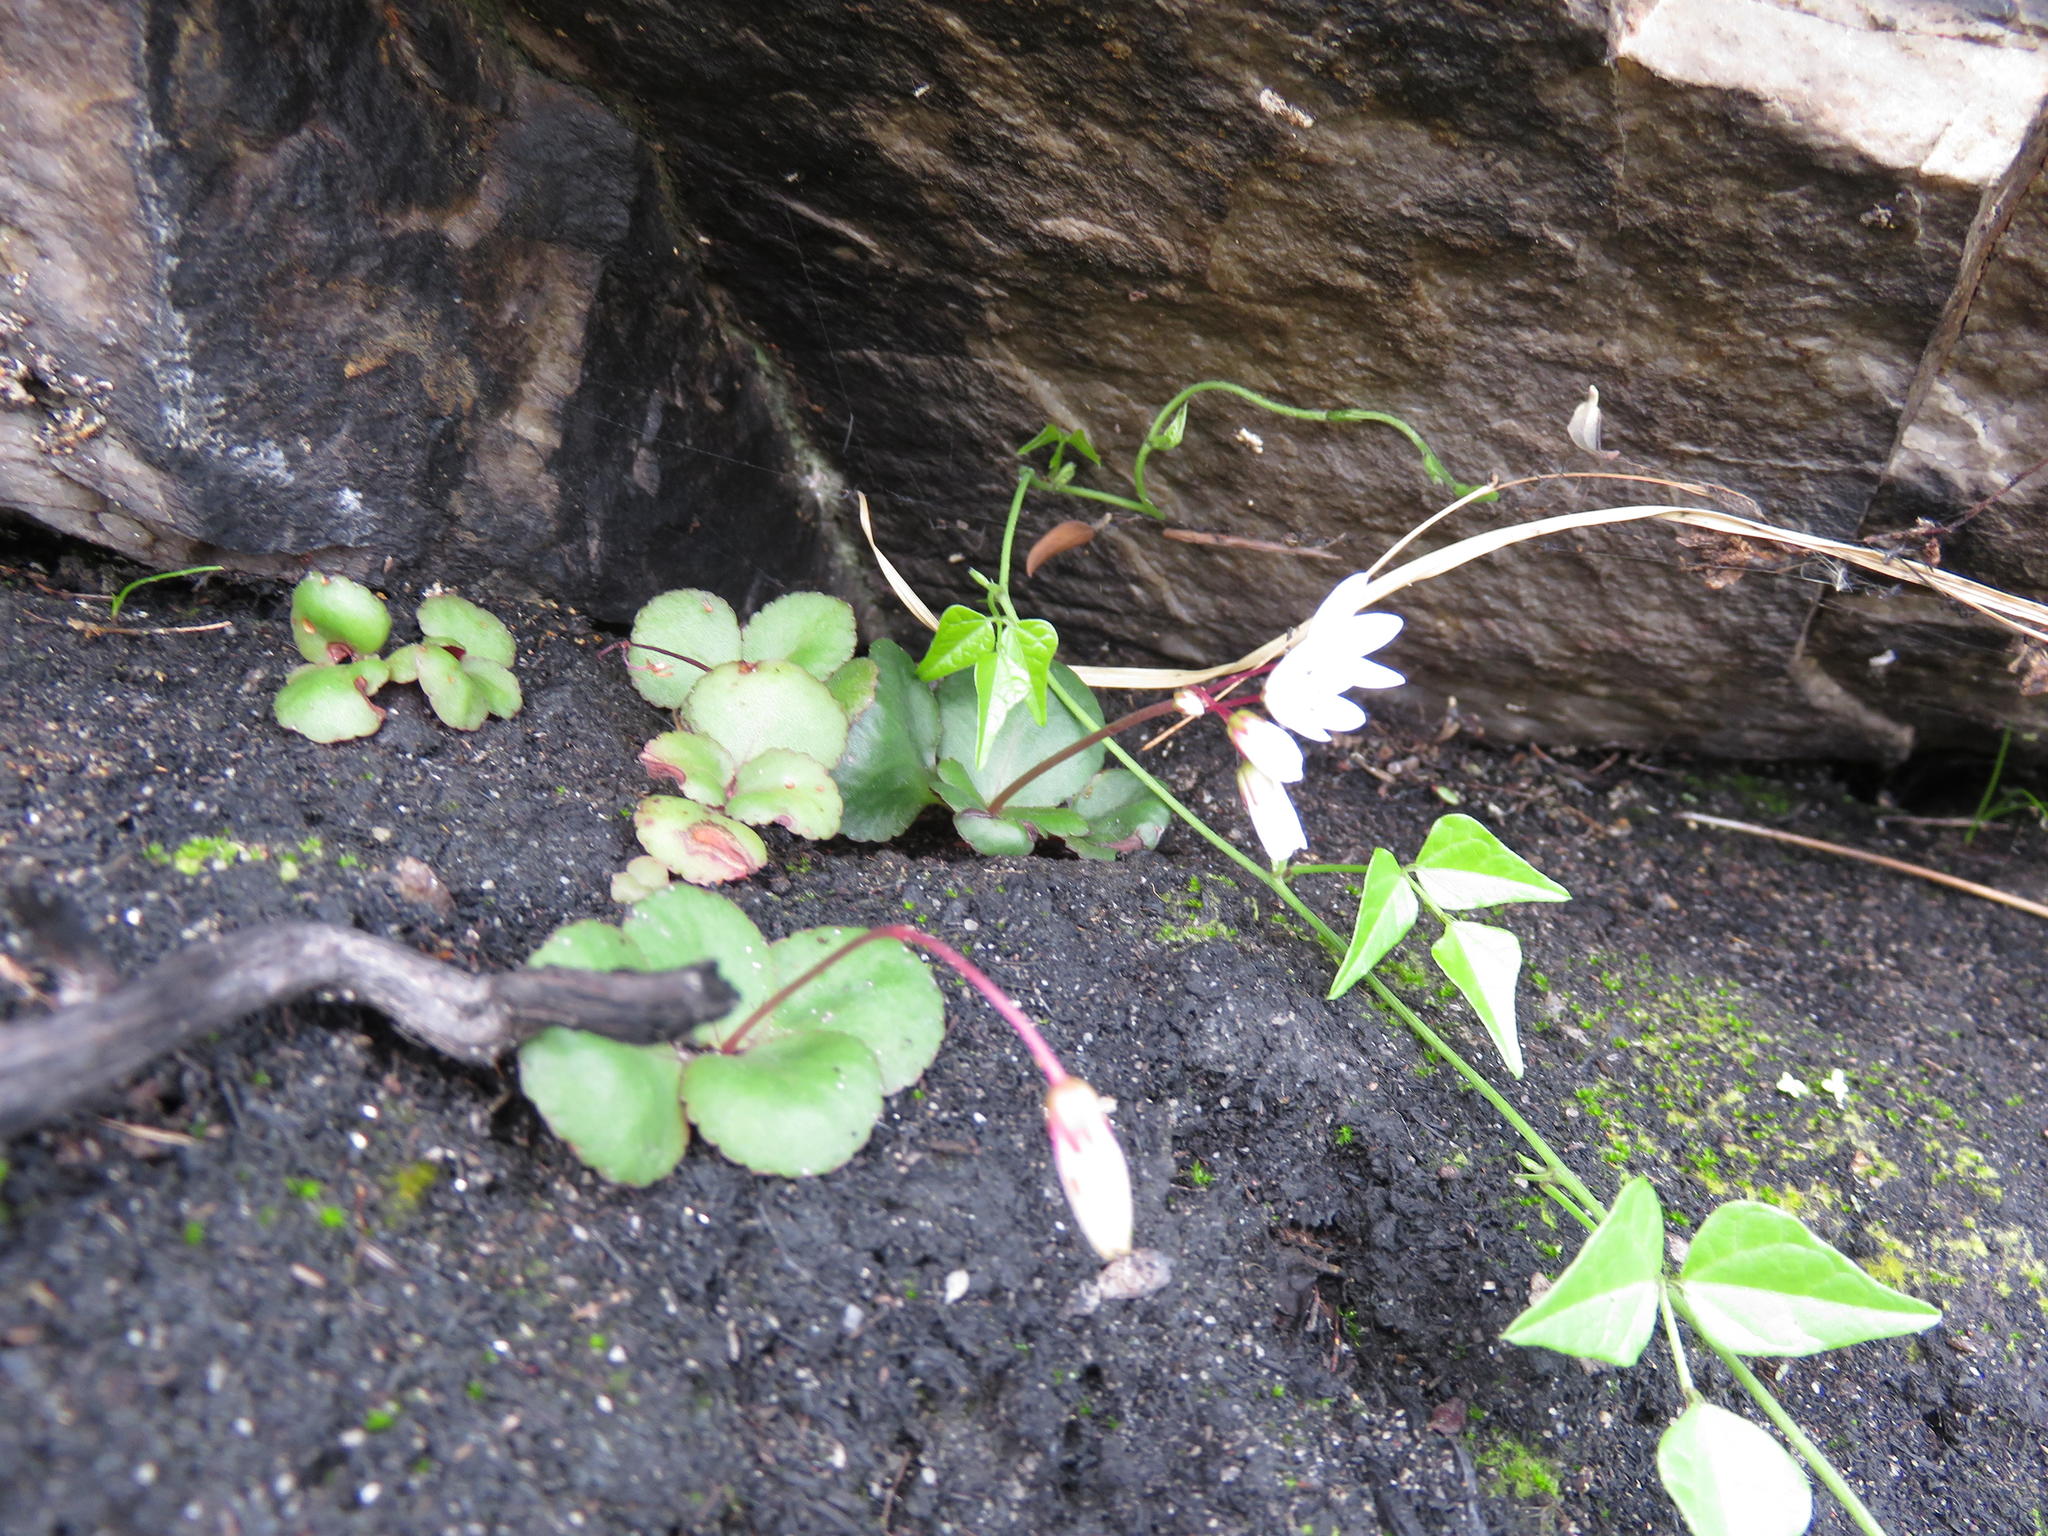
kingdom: Plantae
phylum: Tracheophyta
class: Magnoliopsida
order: Saxifragales
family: Crassulaceae
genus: Crassula
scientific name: Crassula capensis
